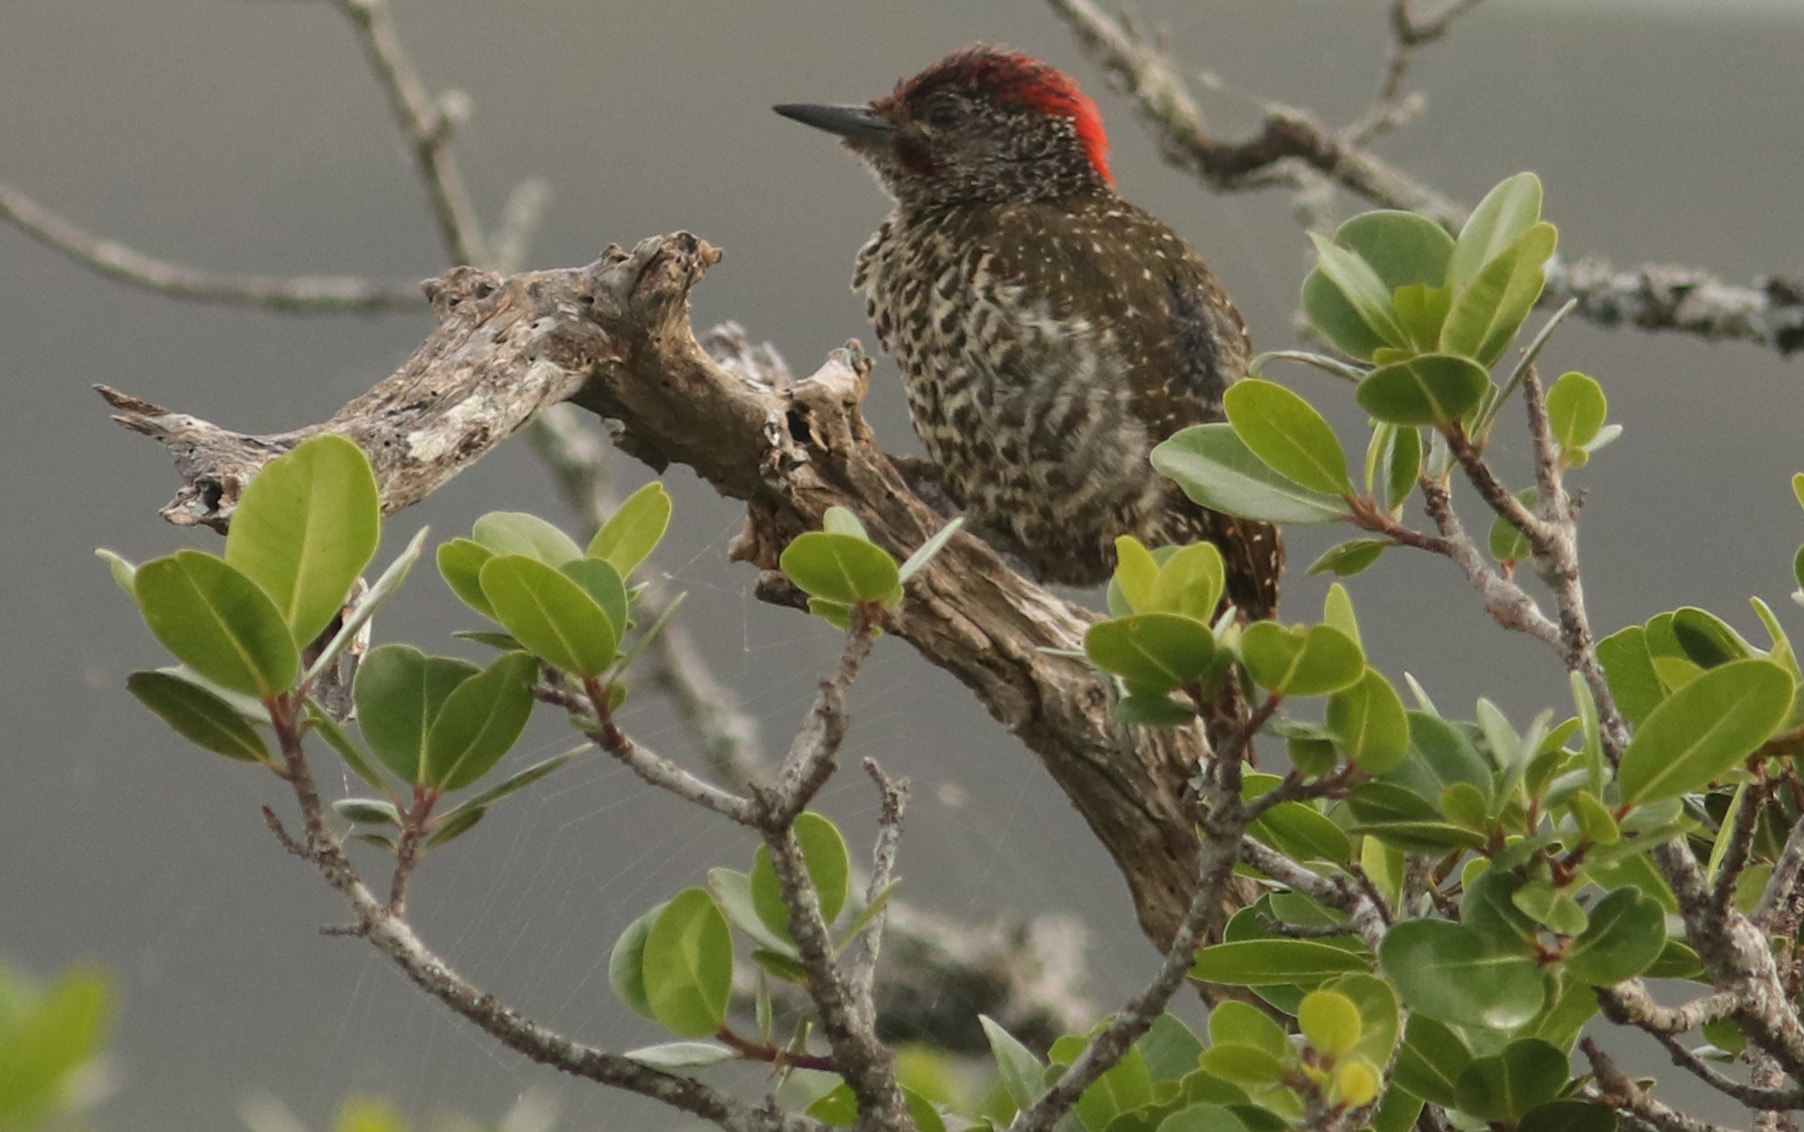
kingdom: Animalia
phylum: Chordata
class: Aves
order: Piciformes
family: Picidae
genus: Campethera
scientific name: Campethera notata
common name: Knysna woodpecker
